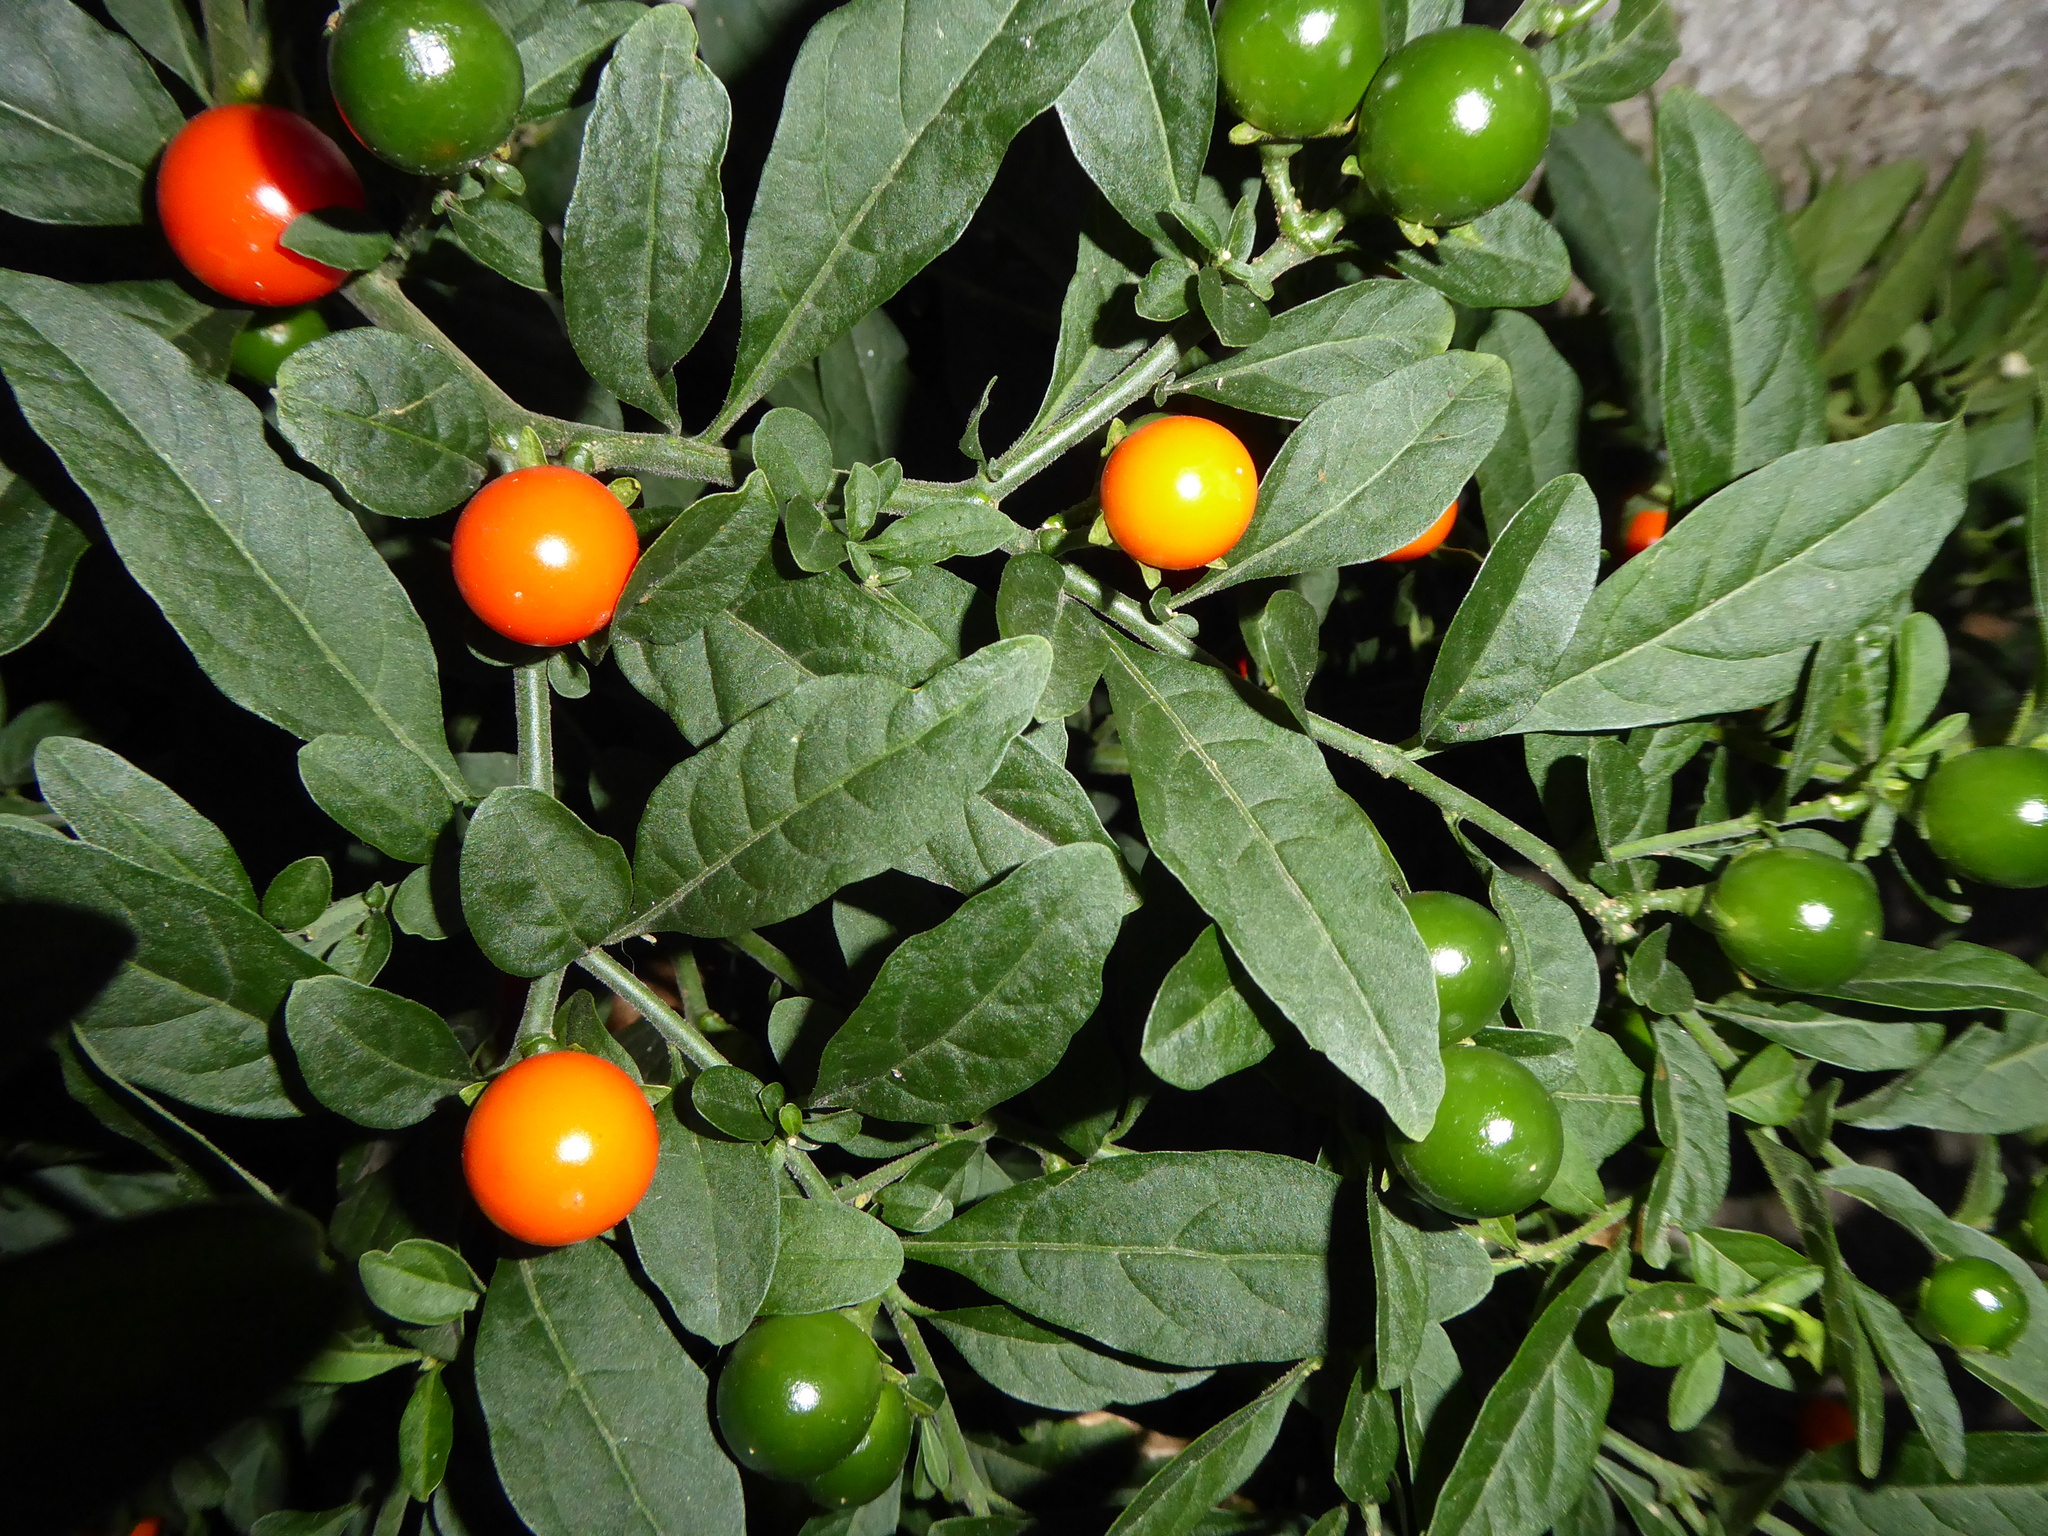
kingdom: Plantae
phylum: Tracheophyta
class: Magnoliopsida
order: Solanales
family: Solanaceae
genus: Solanum
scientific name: Solanum pseudocapsicum
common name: Jerusalem cherry
